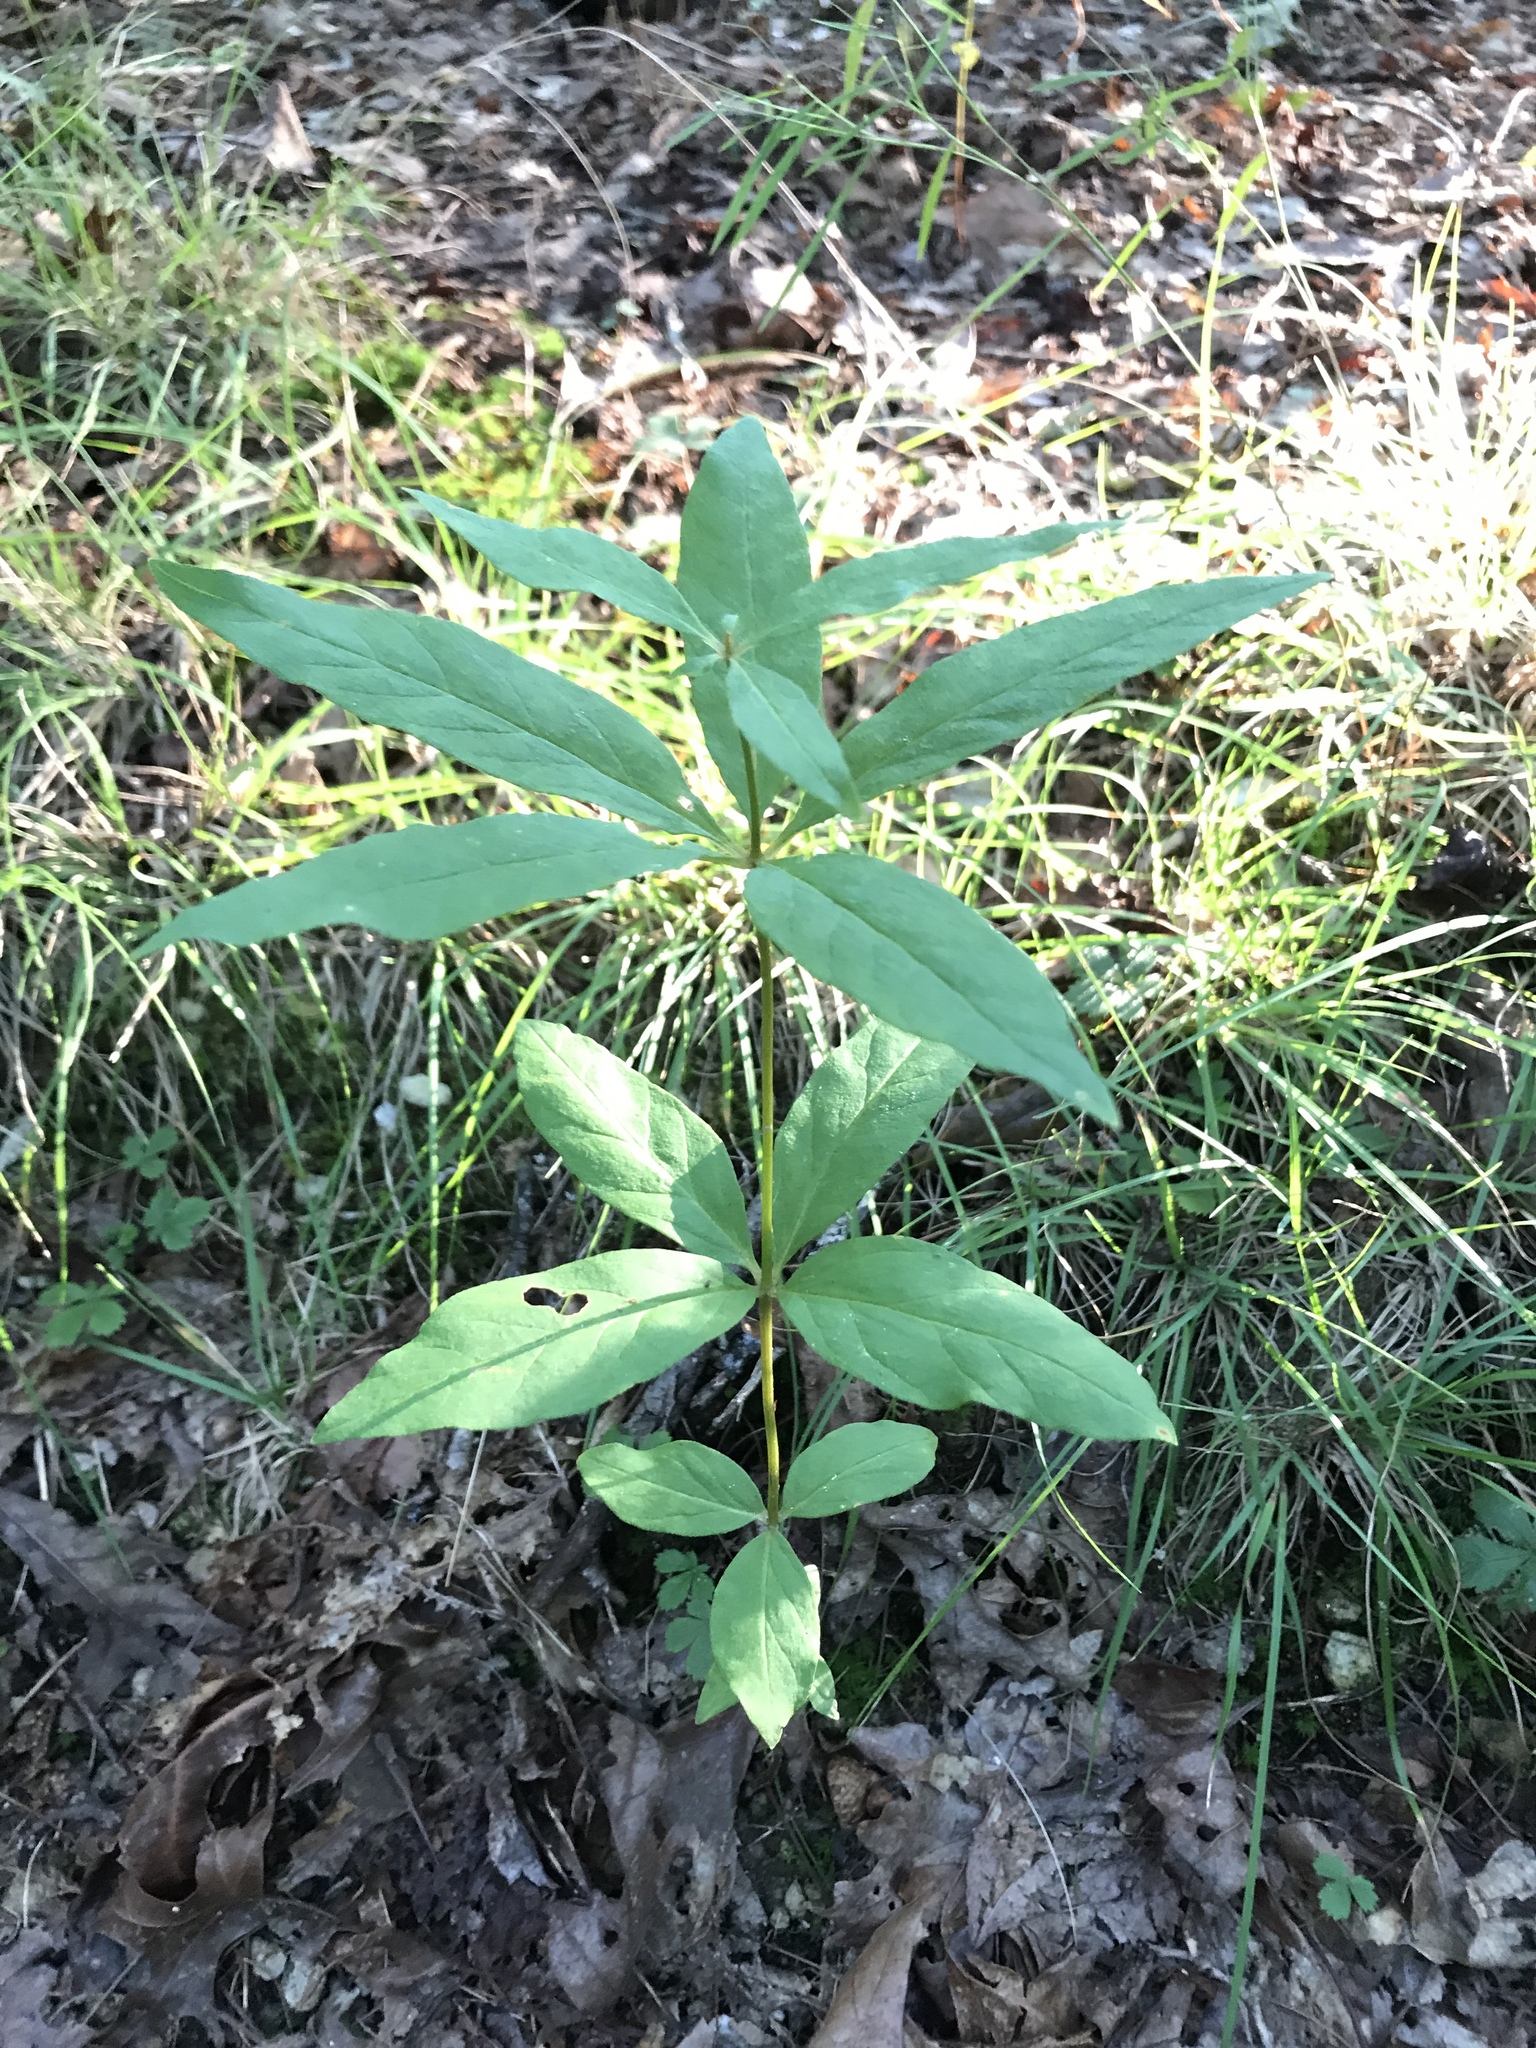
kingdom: Plantae
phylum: Tracheophyta
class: Magnoliopsida
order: Ericales
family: Primulaceae
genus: Lysimachia
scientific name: Lysimachia quadrifolia
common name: Whorled loosestrife
